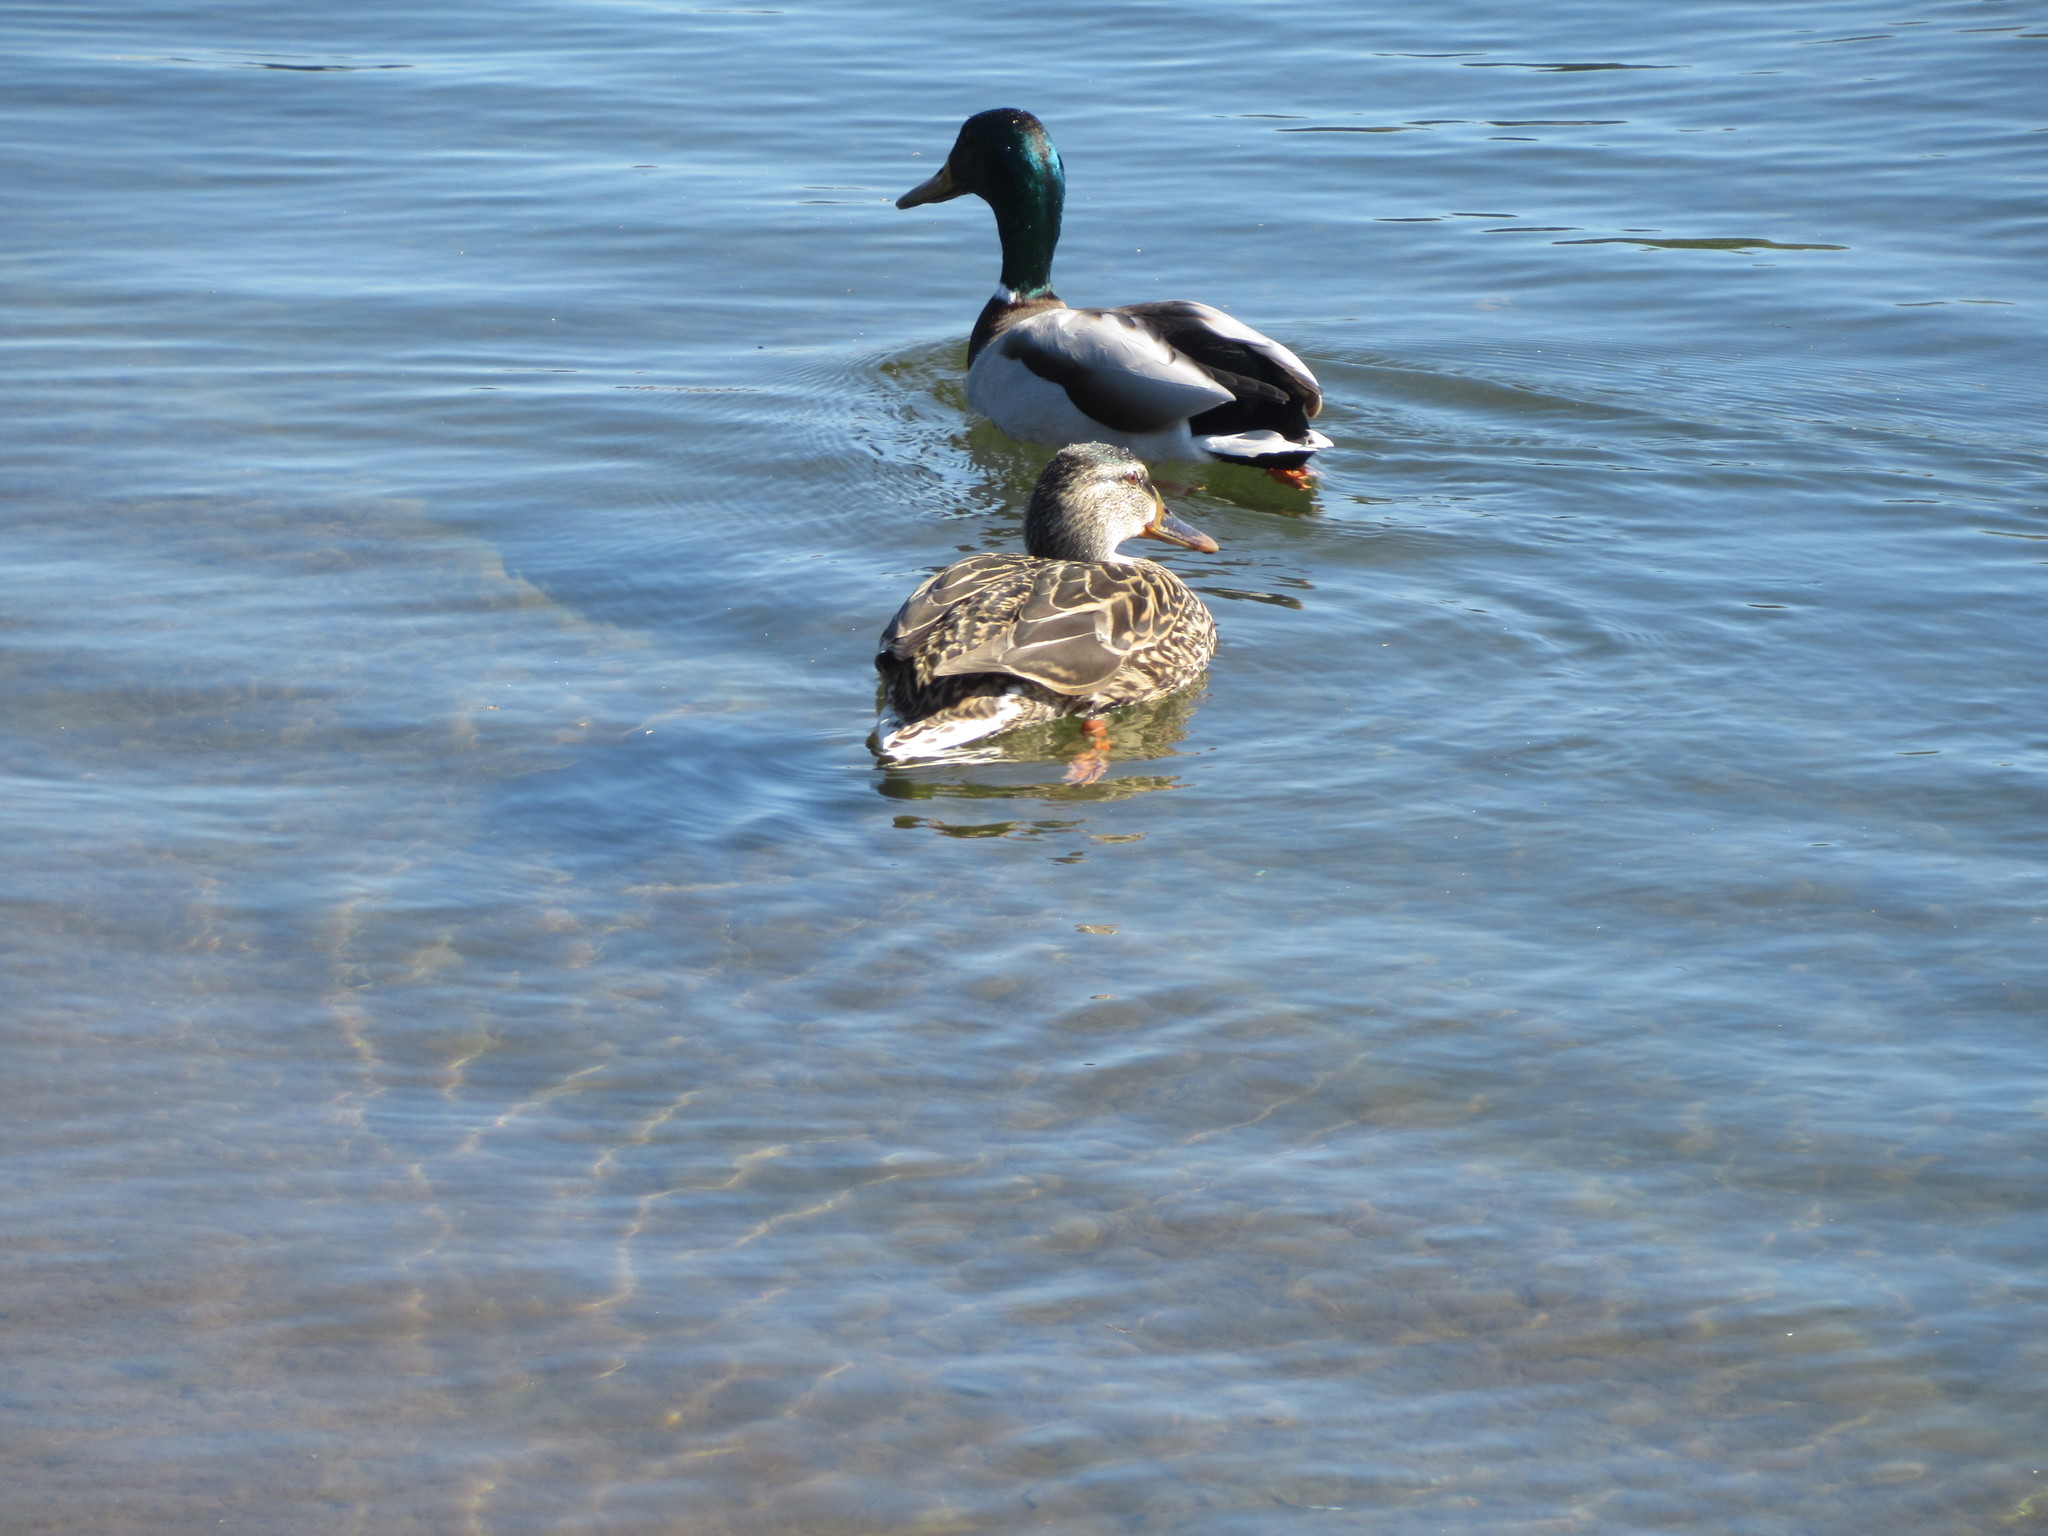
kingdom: Animalia
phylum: Chordata
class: Aves
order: Anseriformes
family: Anatidae
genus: Anas
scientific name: Anas platyrhynchos
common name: Mallard
